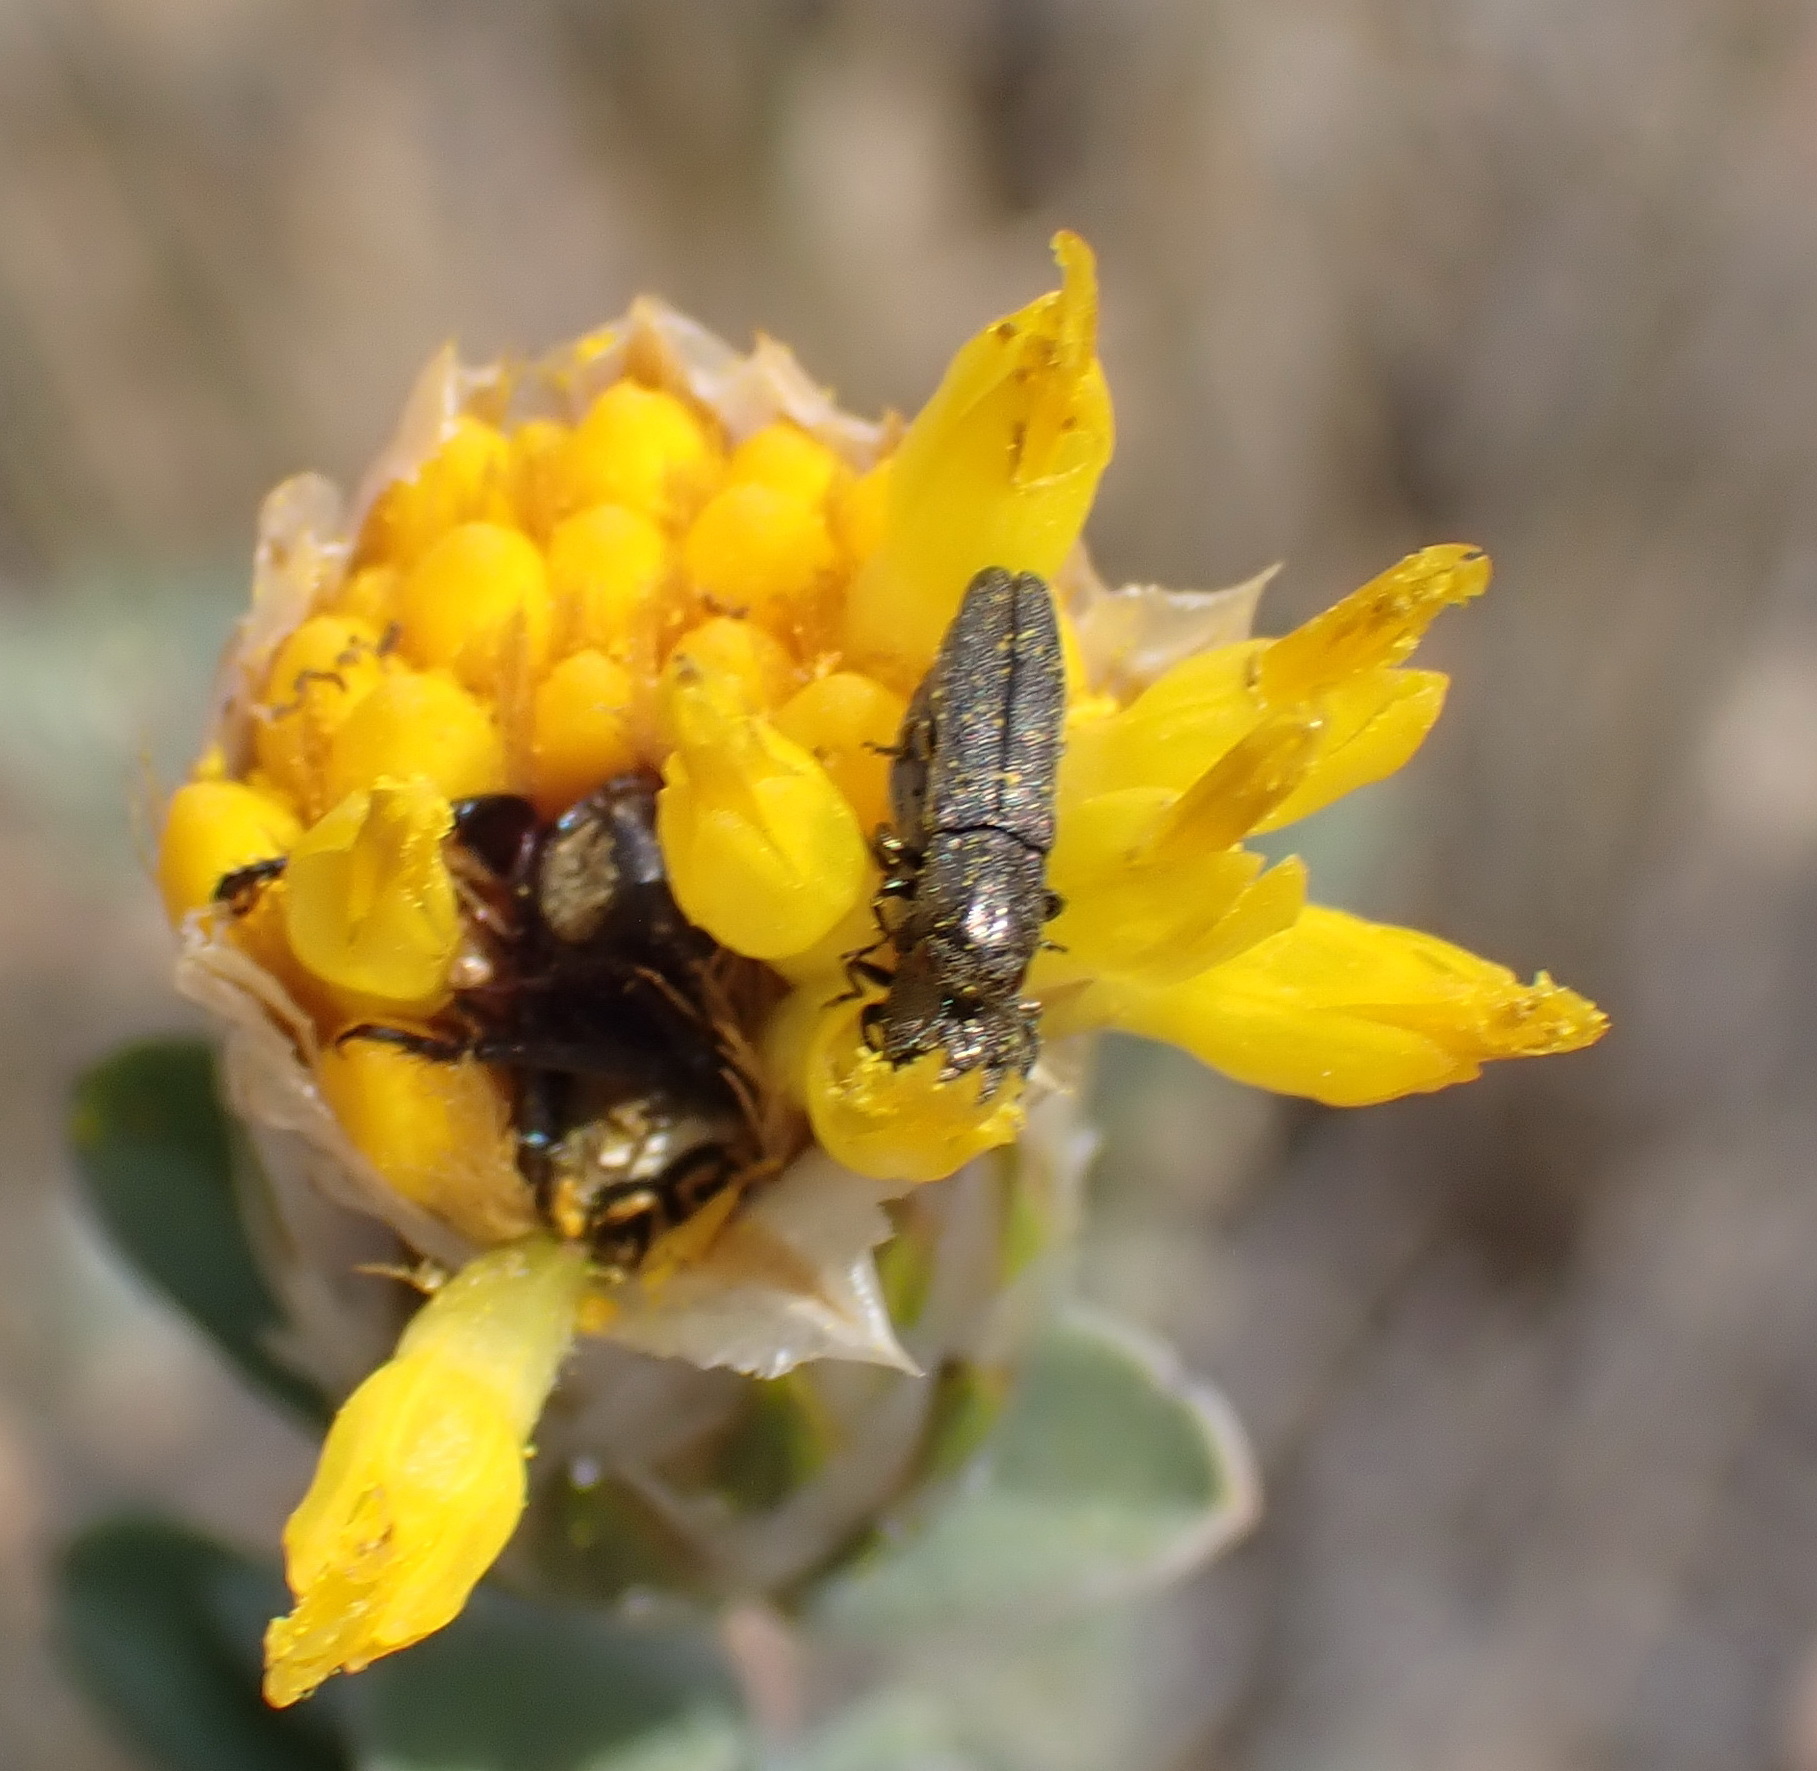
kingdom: Plantae
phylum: Tracheophyta
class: Magnoliopsida
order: Asterales
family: Asteraceae
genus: Pteronia
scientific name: Pteronia membranacea
